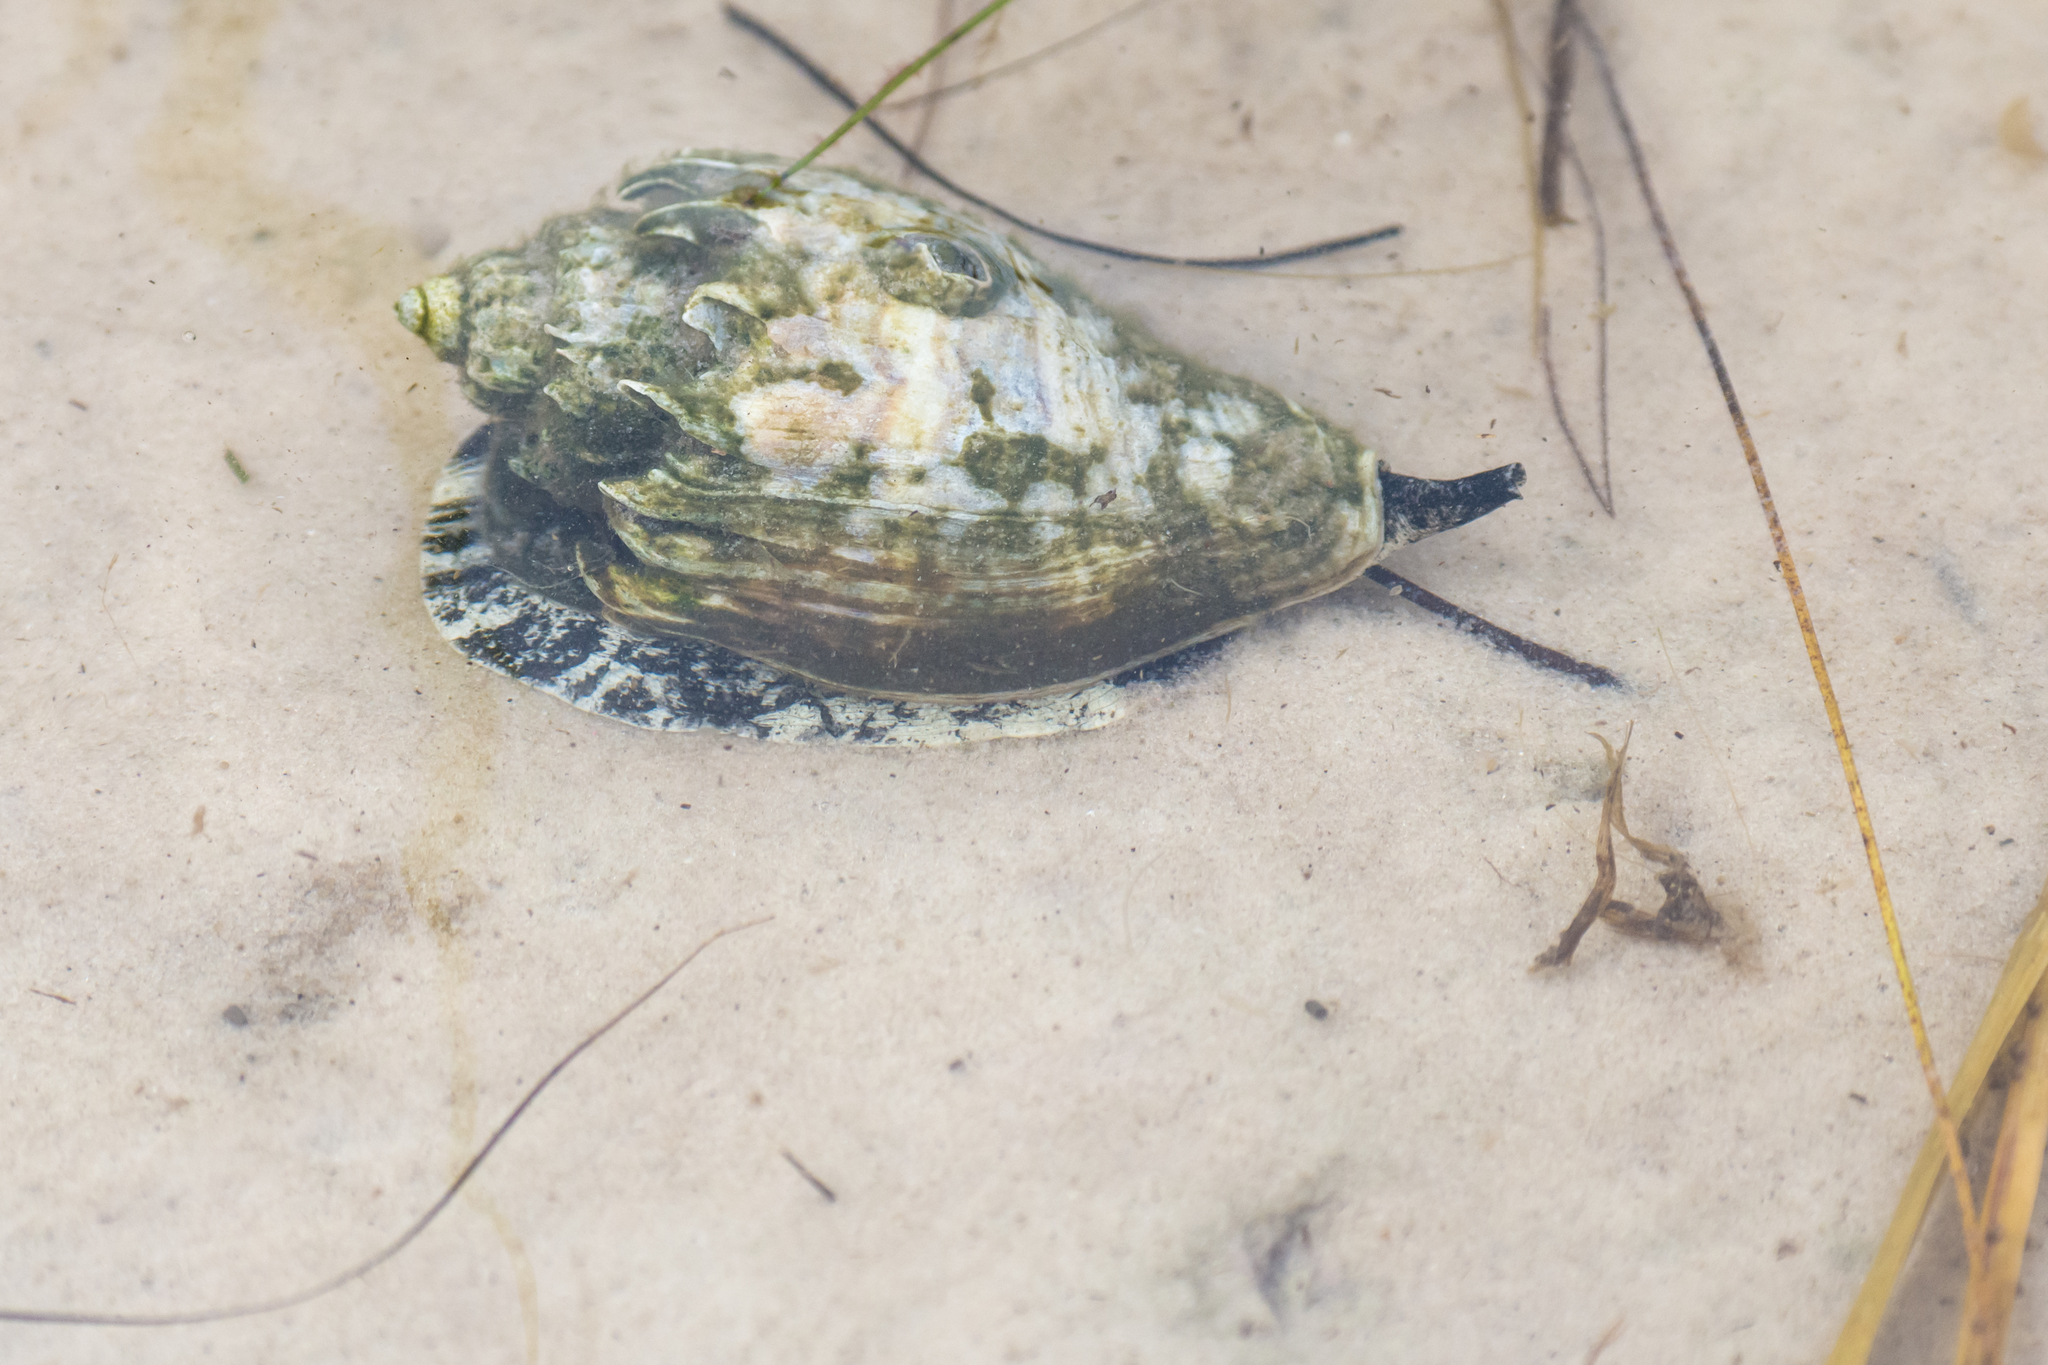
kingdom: Animalia
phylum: Mollusca
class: Gastropoda
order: Neogastropoda
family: Melongenidae
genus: Melongena
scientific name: Melongena corona
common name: American crown conch
